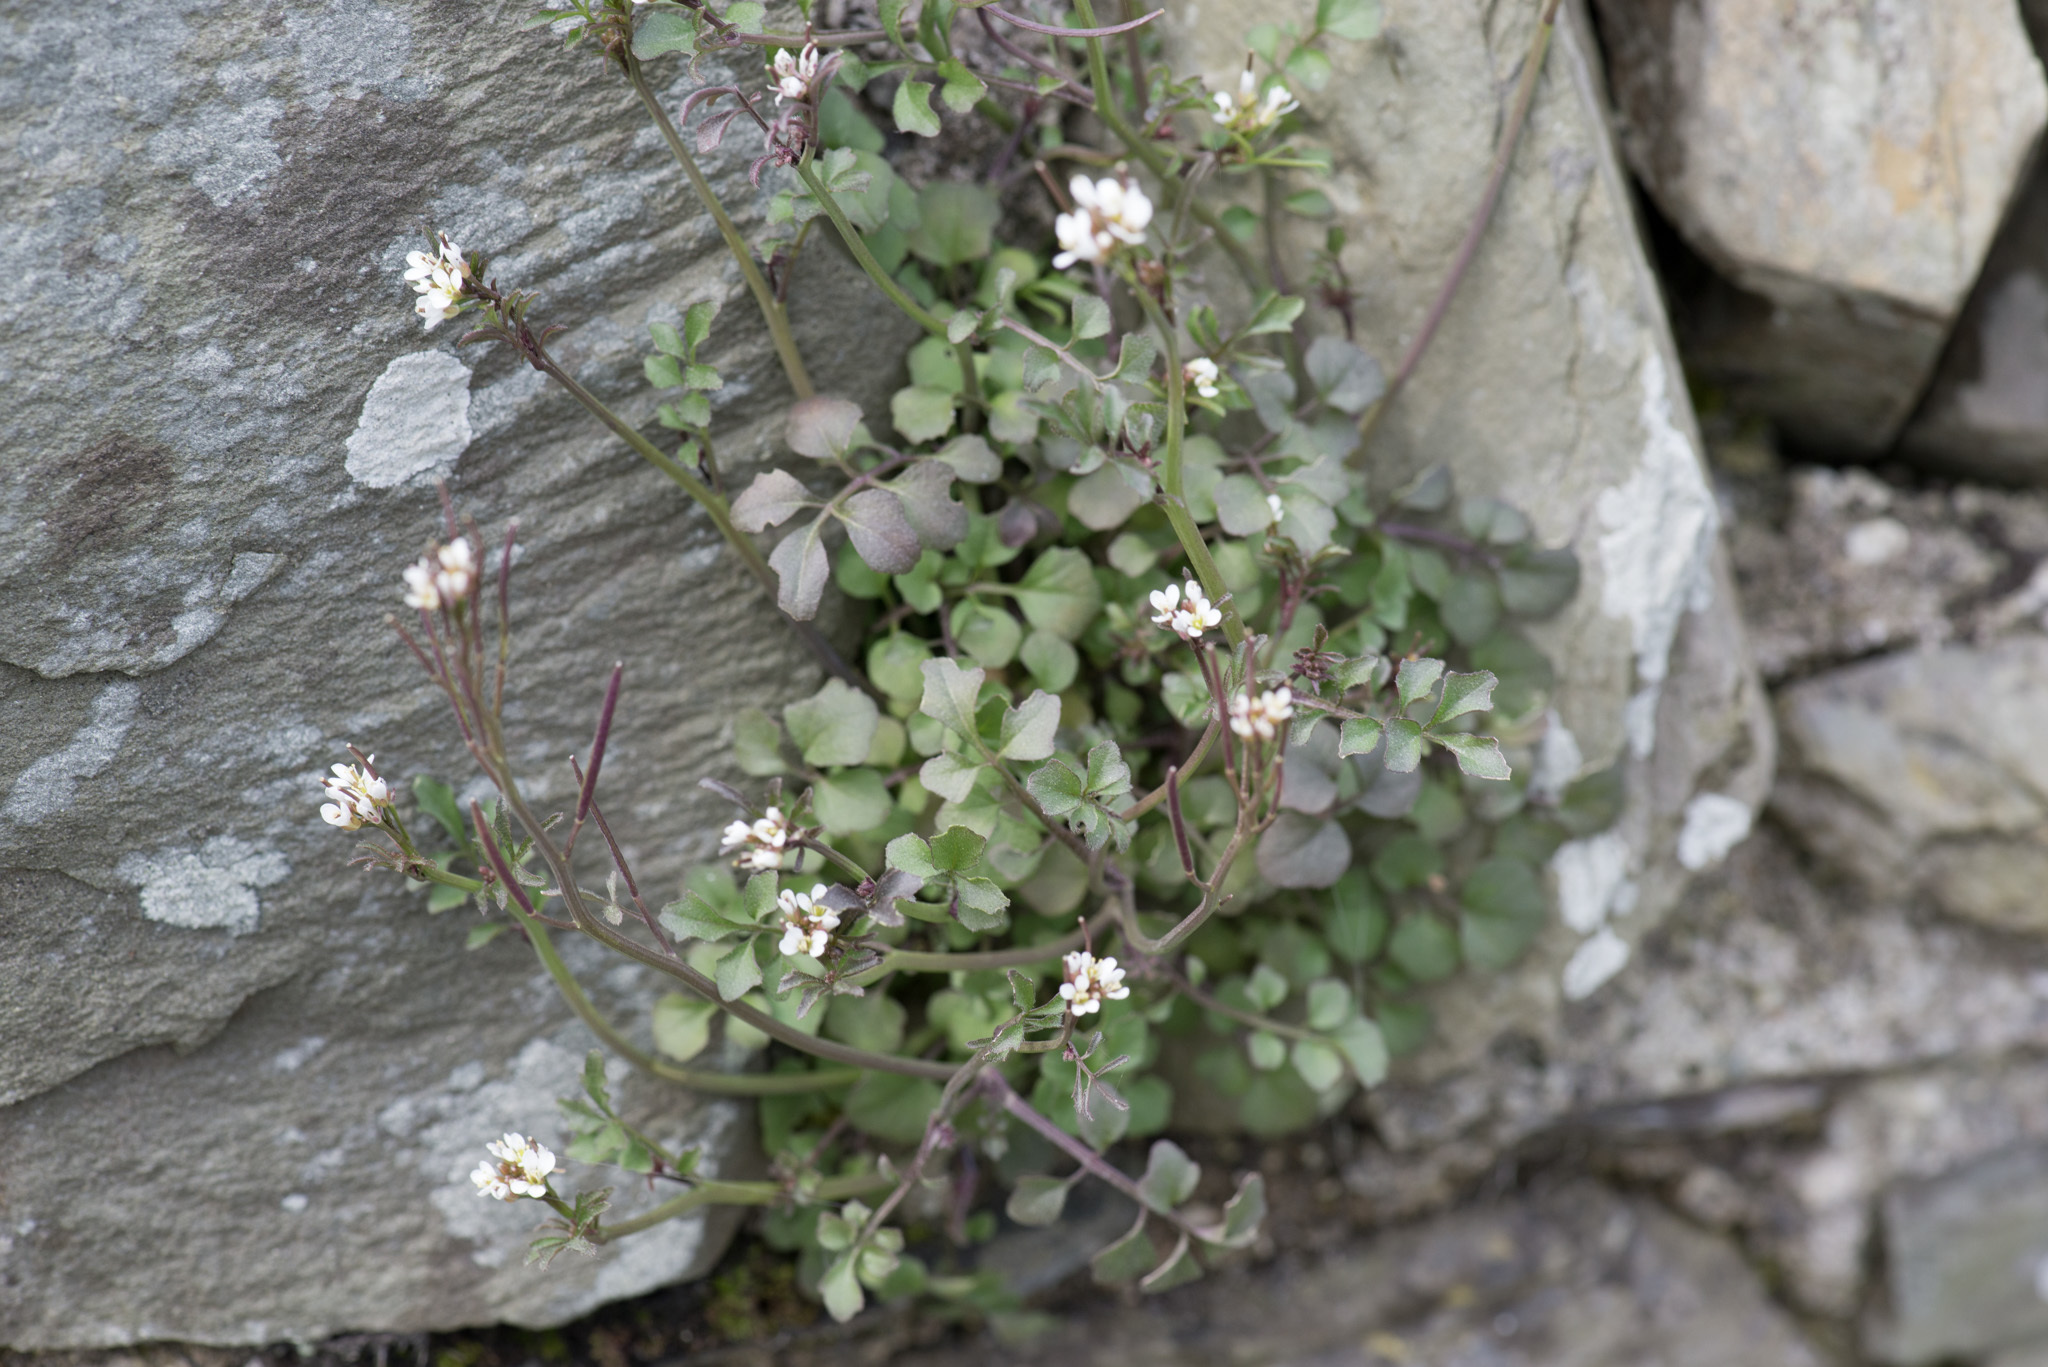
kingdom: Plantae
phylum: Tracheophyta
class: Magnoliopsida
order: Brassicales
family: Brassicaceae
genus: Cardamine
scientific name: Cardamine hirsuta
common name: Hairy bittercress
